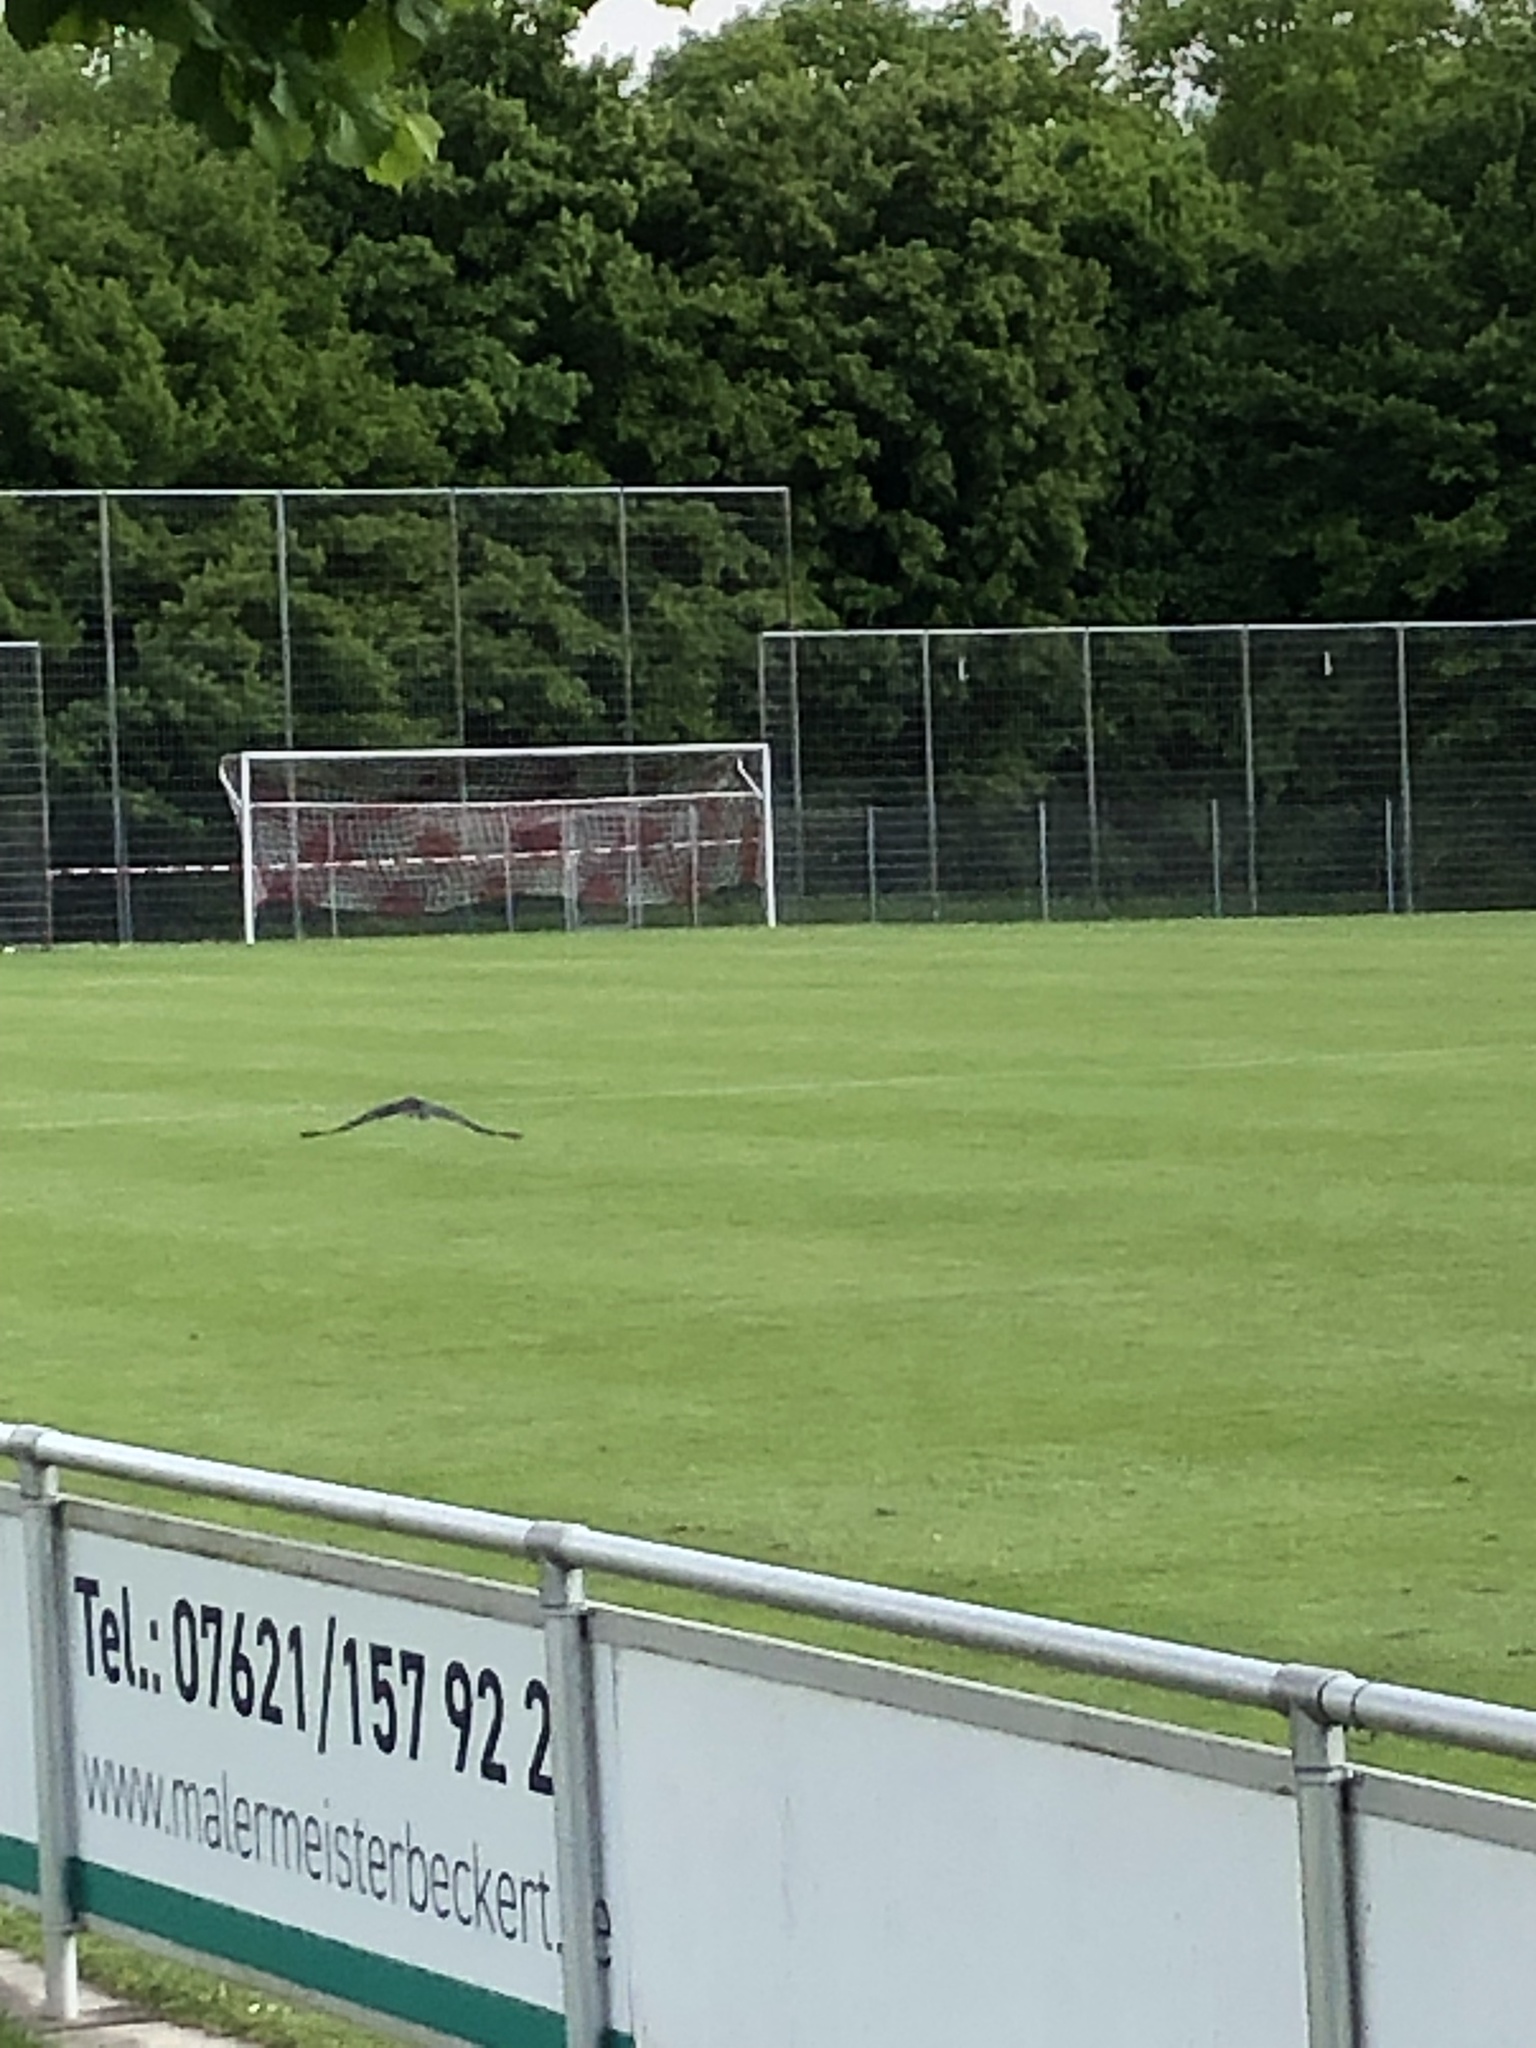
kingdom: Animalia
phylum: Chordata
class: Aves
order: Passeriformes
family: Corvidae
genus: Corvus
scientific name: Corvus corone
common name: Carrion crow
